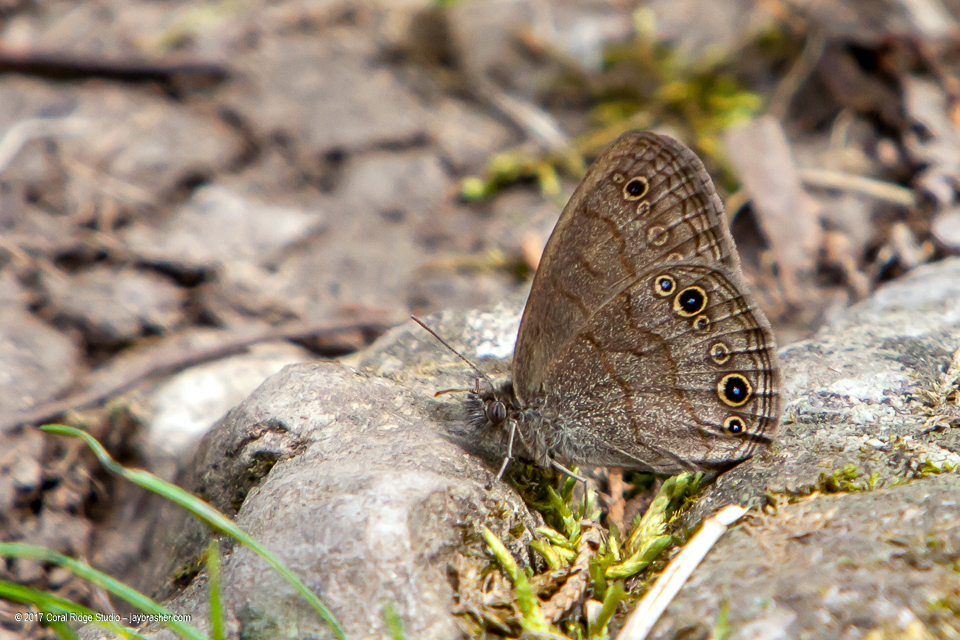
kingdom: Animalia
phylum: Arthropoda
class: Insecta
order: Lepidoptera
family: Nymphalidae
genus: Hermeuptychia
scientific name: Hermeuptychia hermes
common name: Hermes satyr
